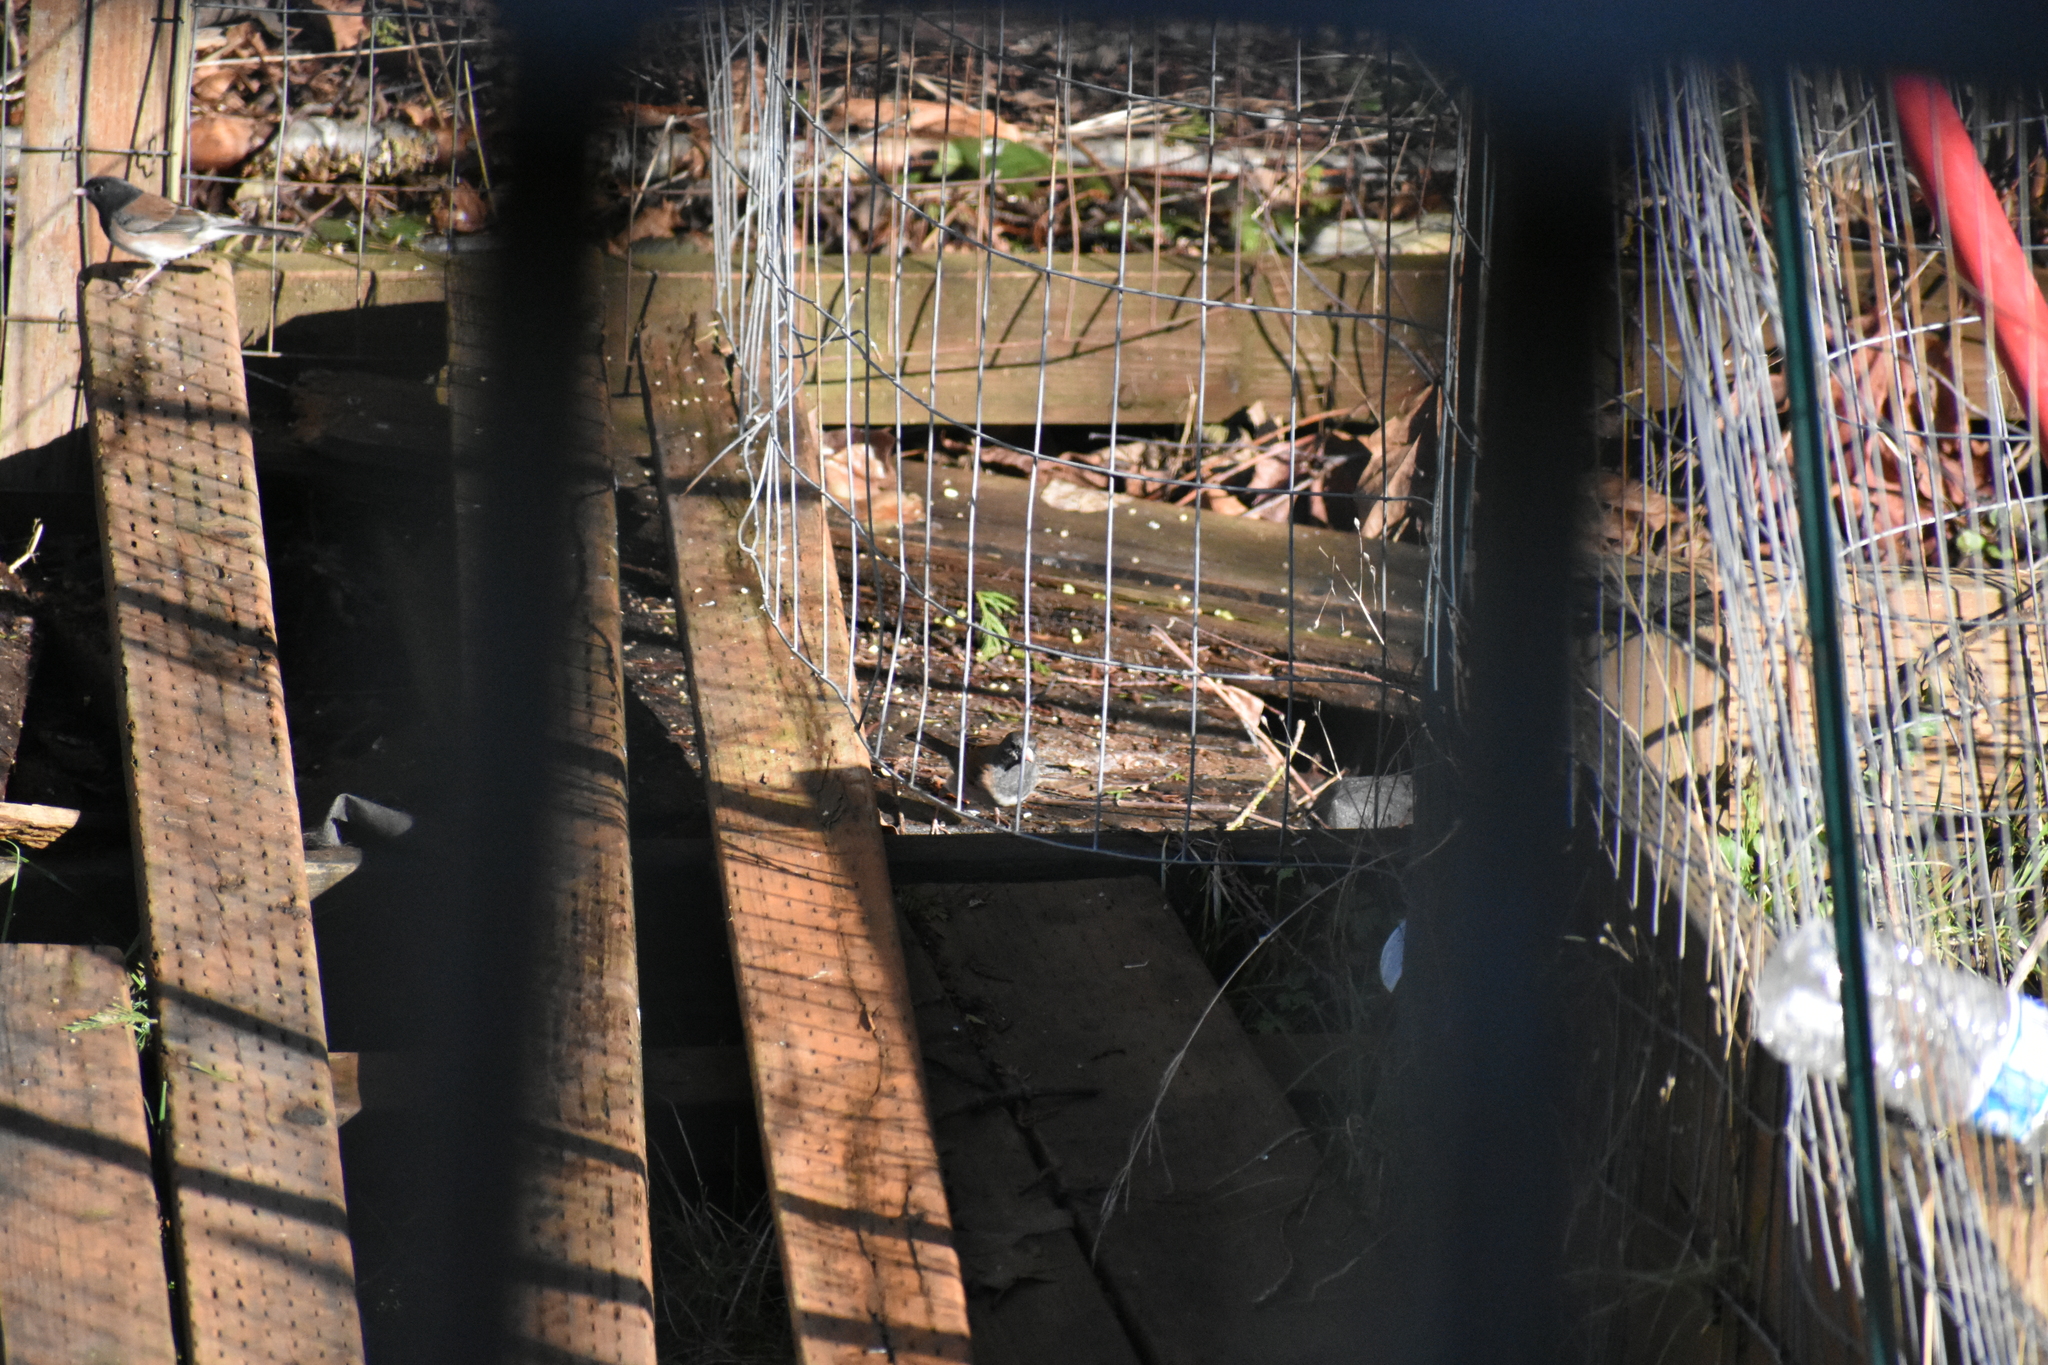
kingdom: Animalia
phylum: Chordata
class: Aves
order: Passeriformes
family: Passerellidae
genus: Junco
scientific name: Junco hyemalis
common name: Dark-eyed junco
